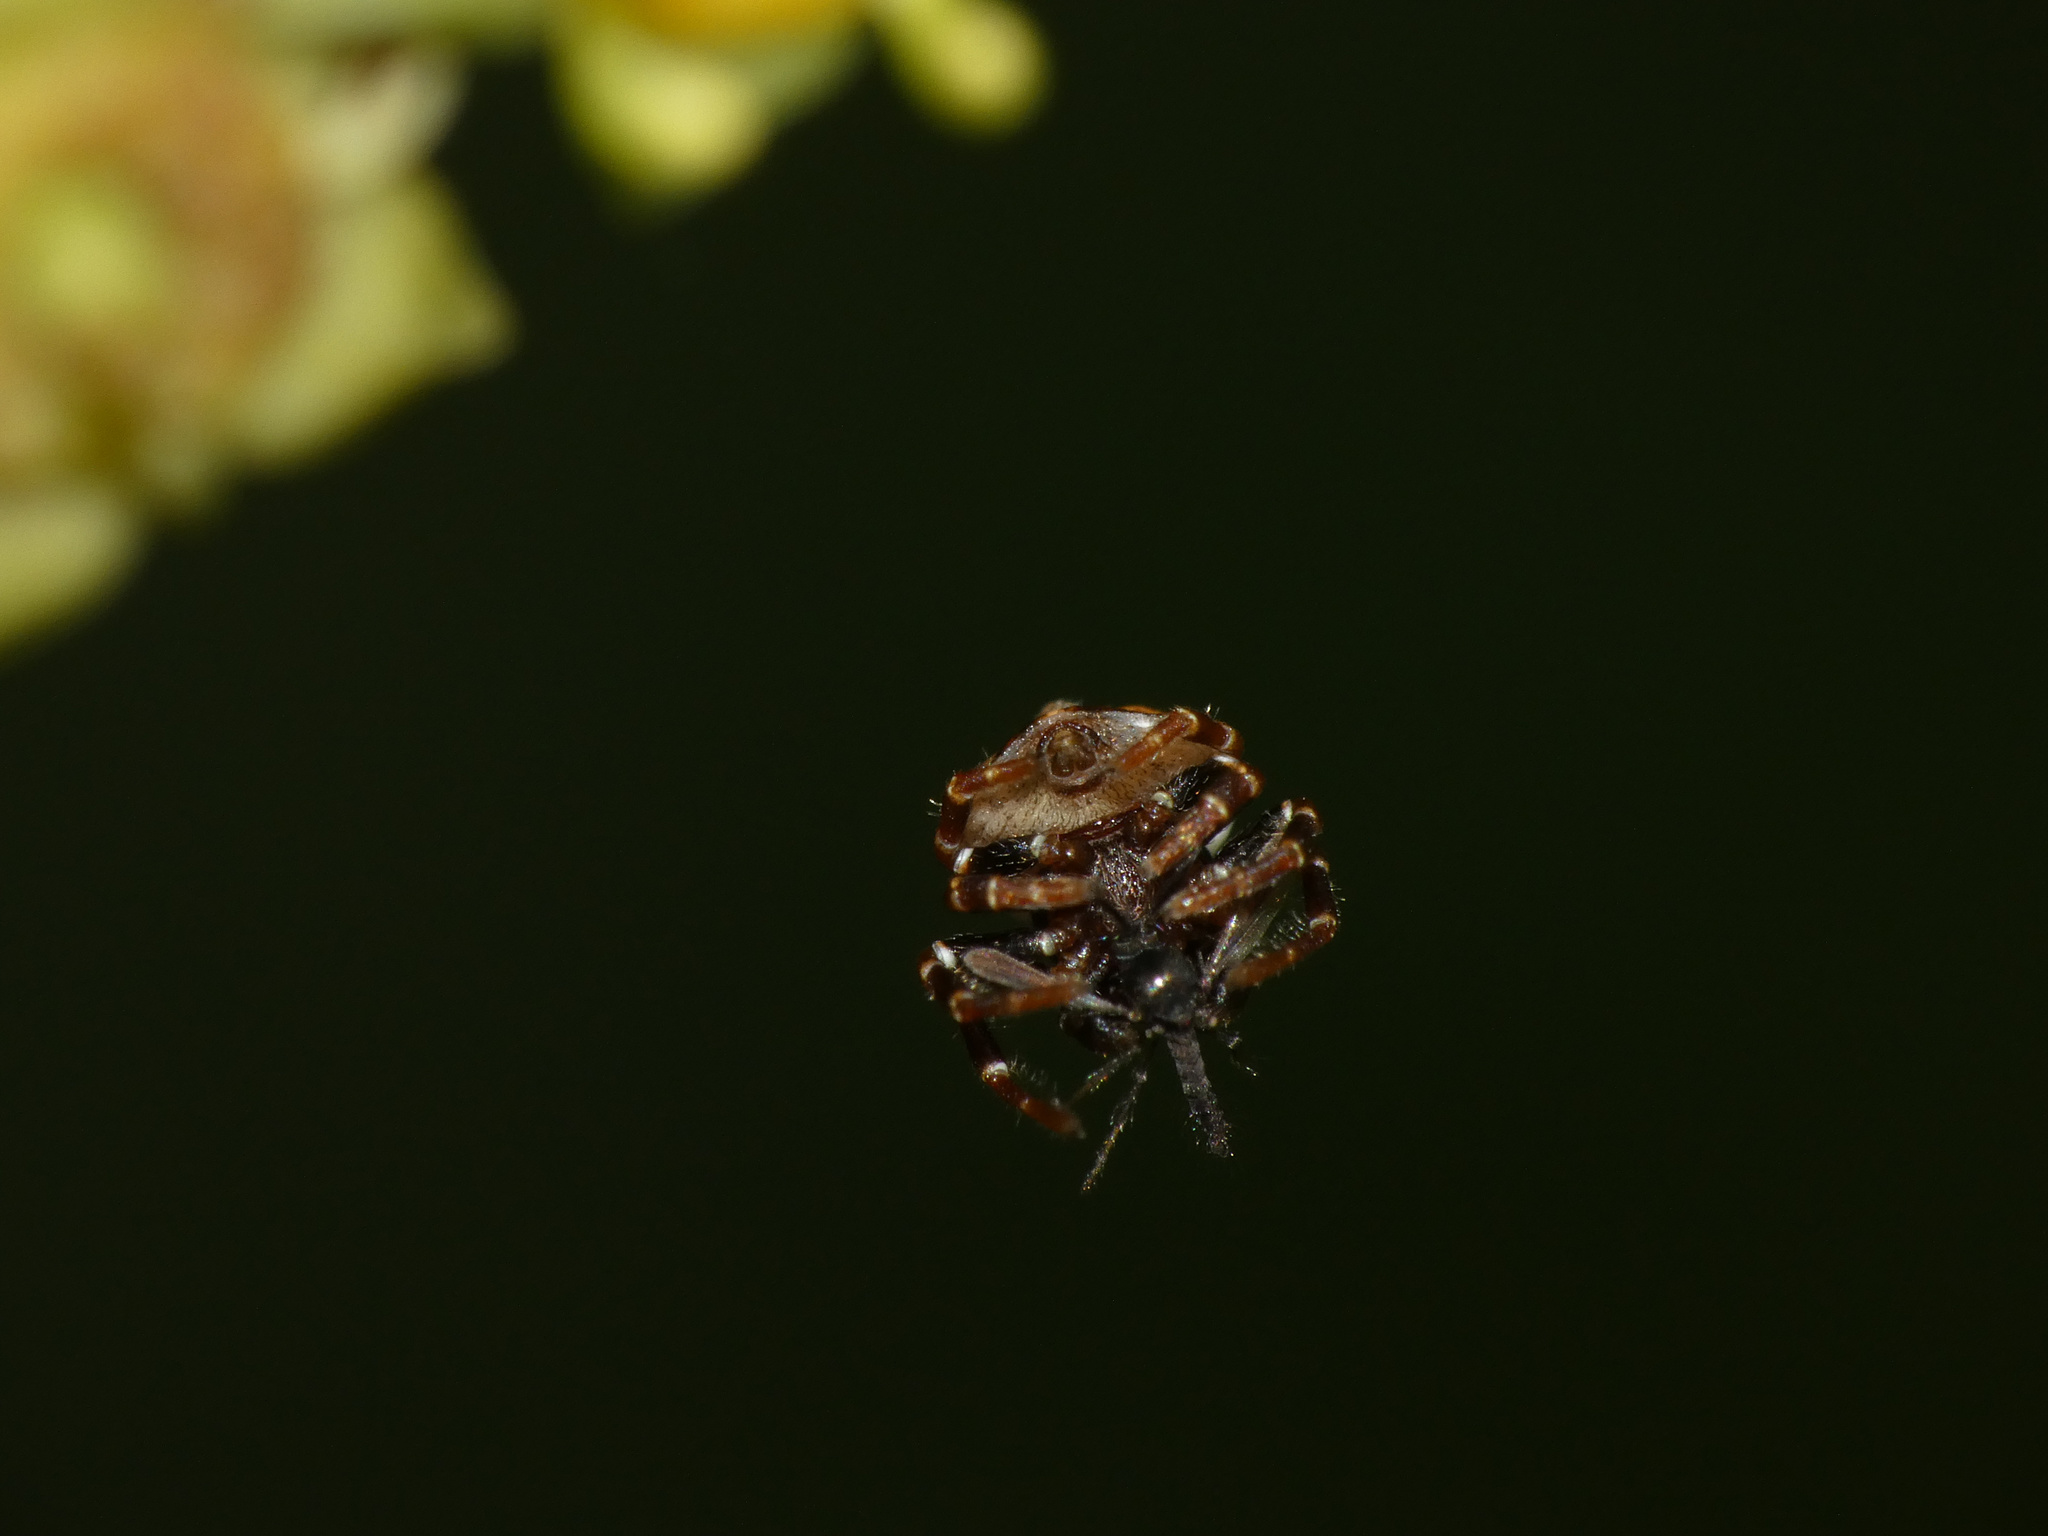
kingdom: Animalia
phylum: Arthropoda
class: Arachnida
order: Araneae
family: Thomisidae
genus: Parabomis
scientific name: Parabomis megae
